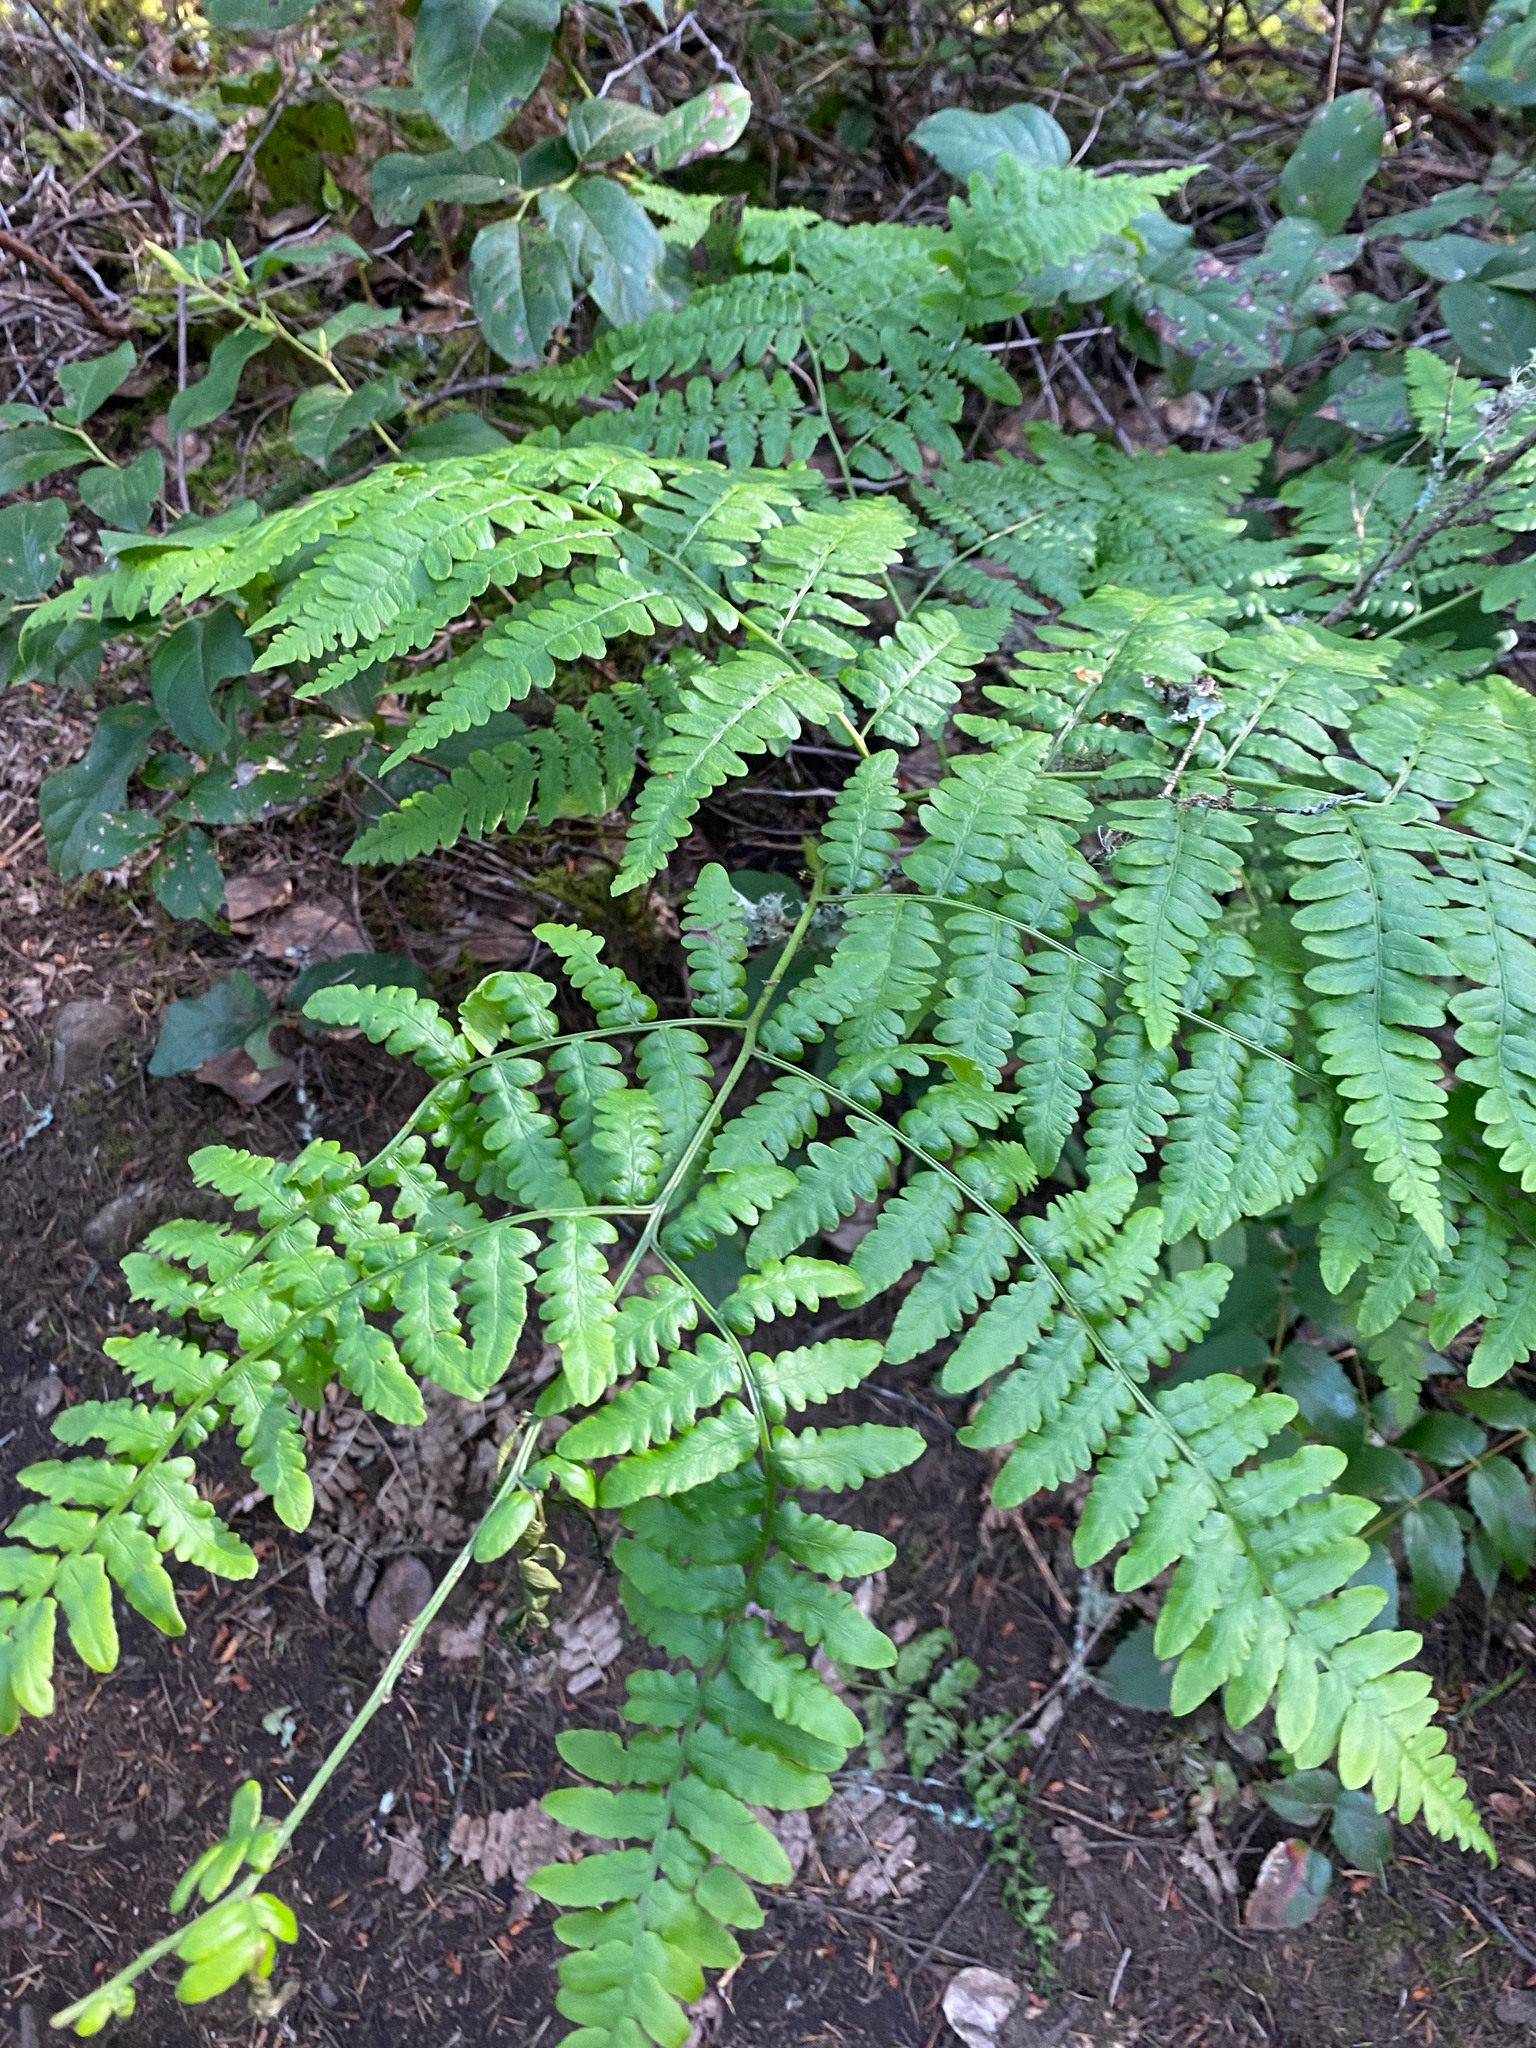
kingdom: Plantae
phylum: Tracheophyta
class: Polypodiopsida
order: Polypodiales
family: Dennstaedtiaceae
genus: Pteridium
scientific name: Pteridium aquilinum
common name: Bracken
